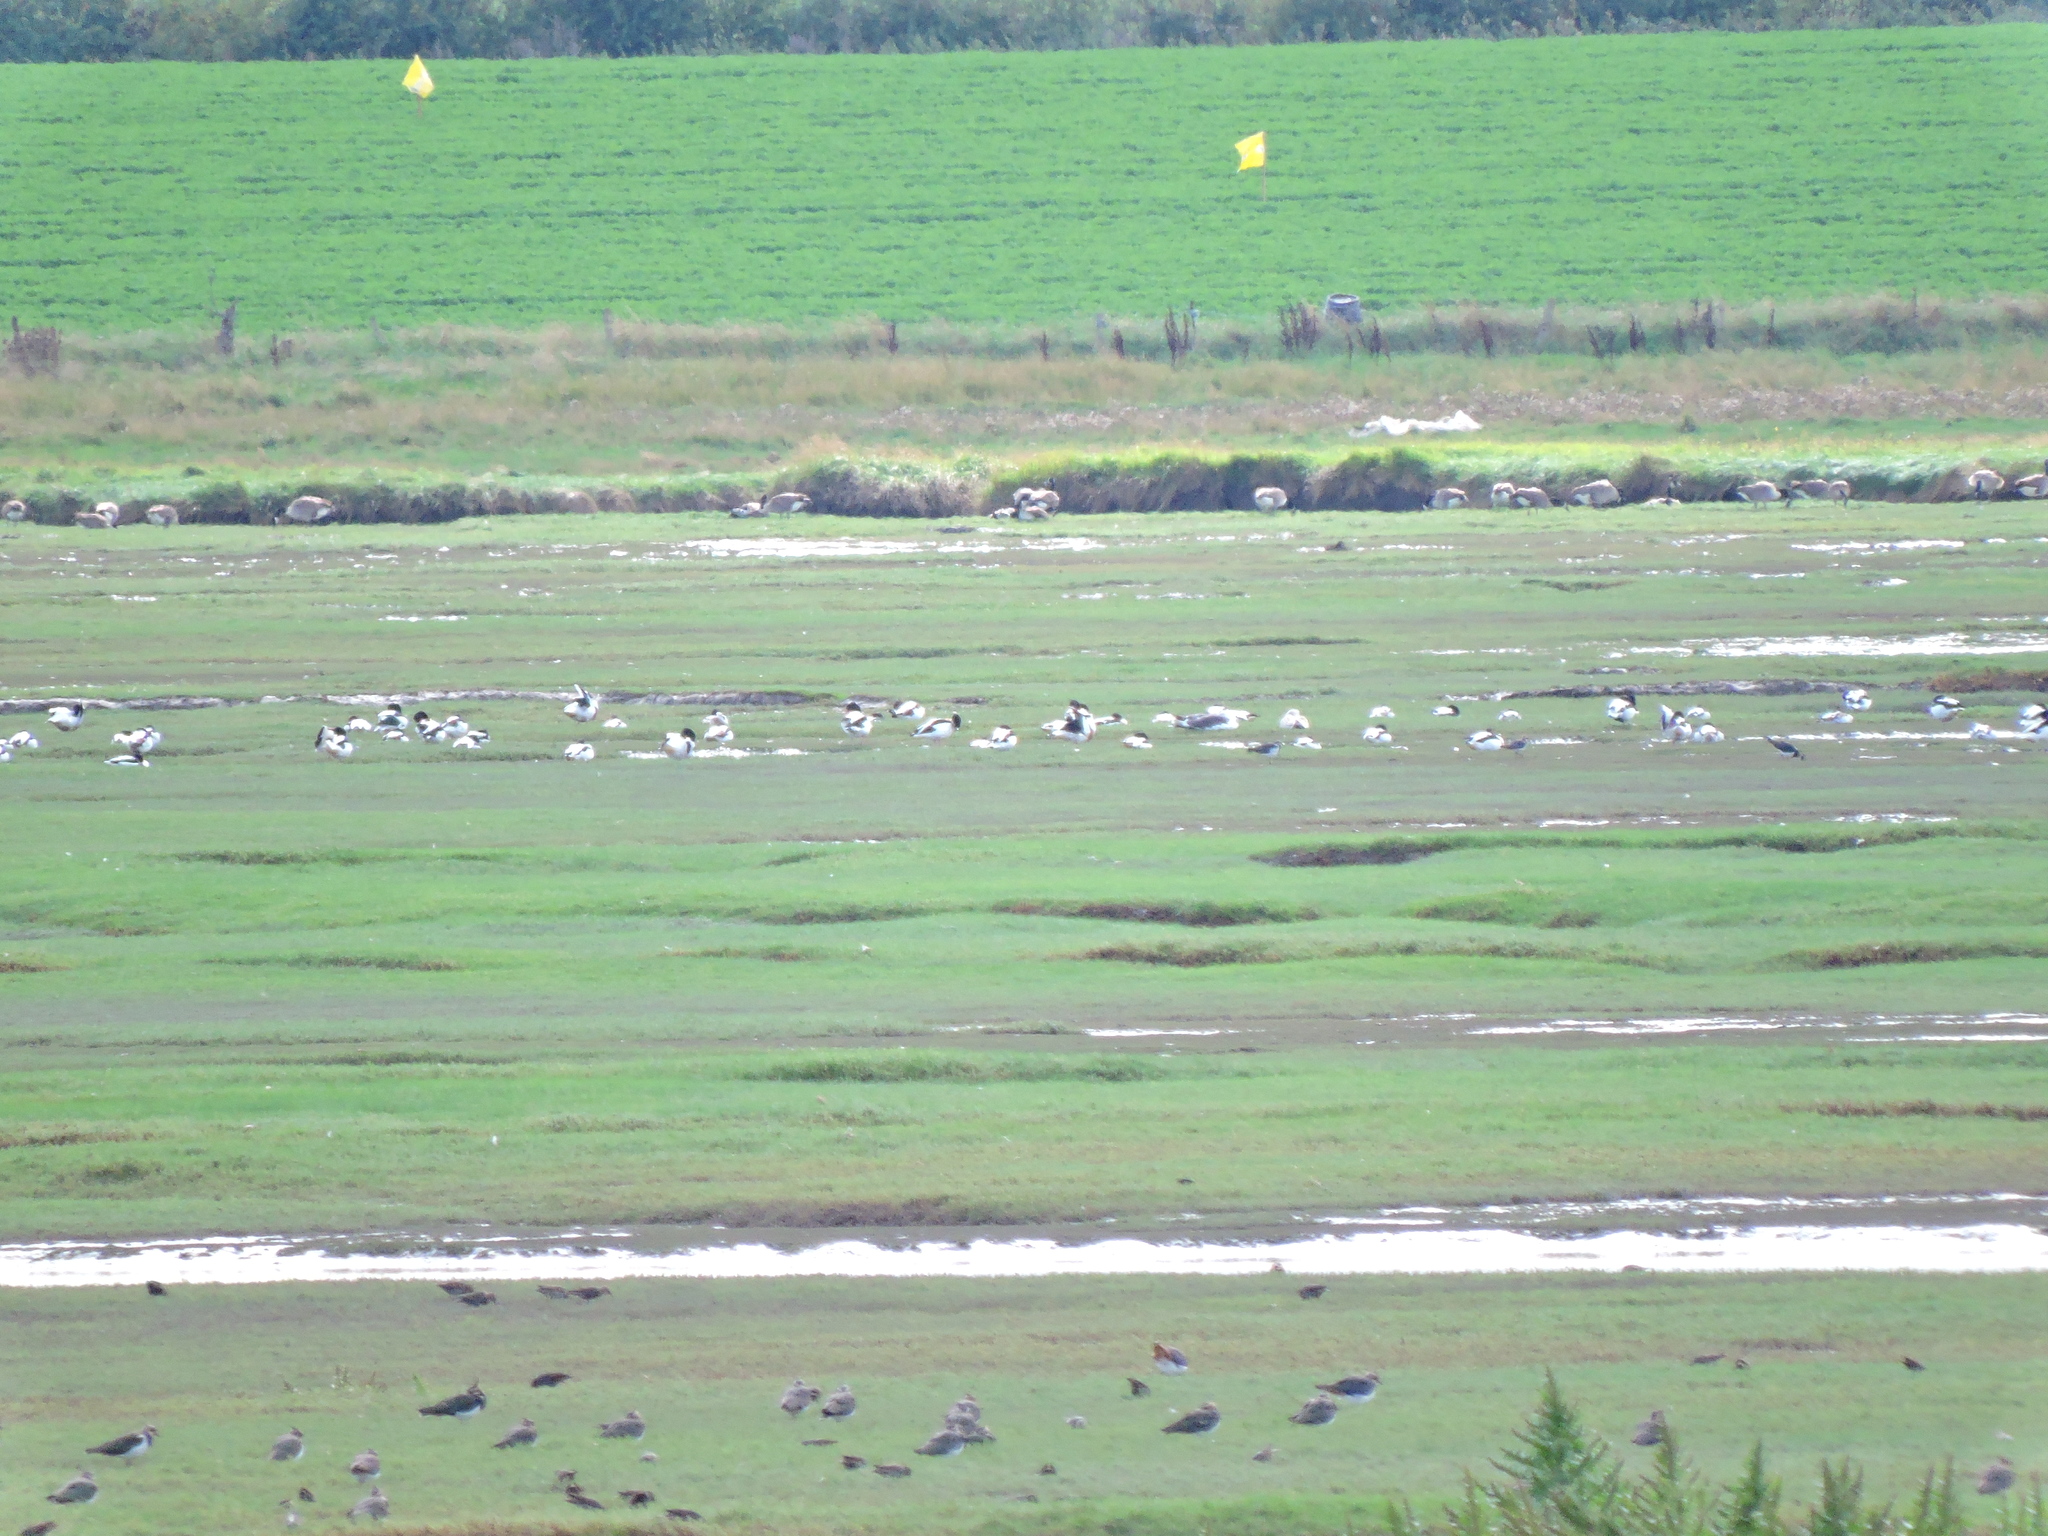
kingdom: Animalia
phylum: Chordata
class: Aves
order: Anseriformes
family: Anatidae
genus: Tadorna
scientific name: Tadorna tadorna
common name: Common shelduck
